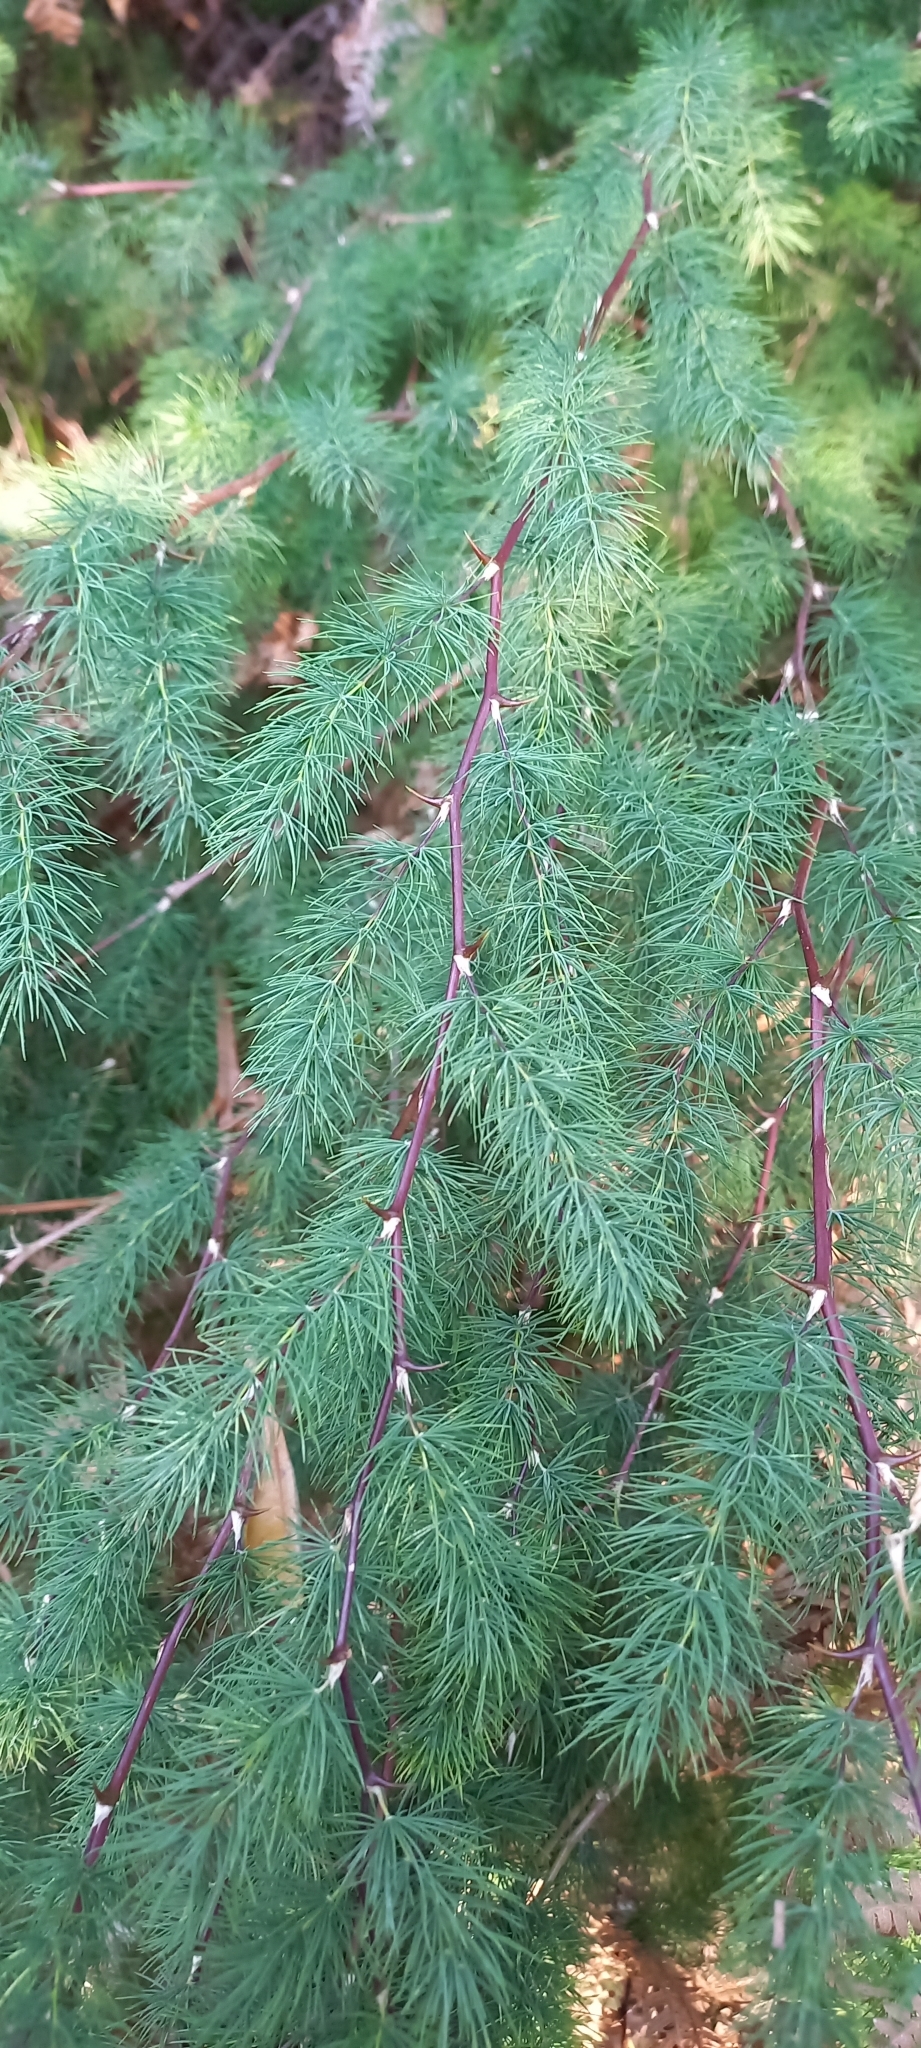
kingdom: Plantae
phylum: Tracheophyta
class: Liliopsida
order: Asparagales
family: Asparagaceae
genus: Asparagus
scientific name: Asparagus rubicundus
